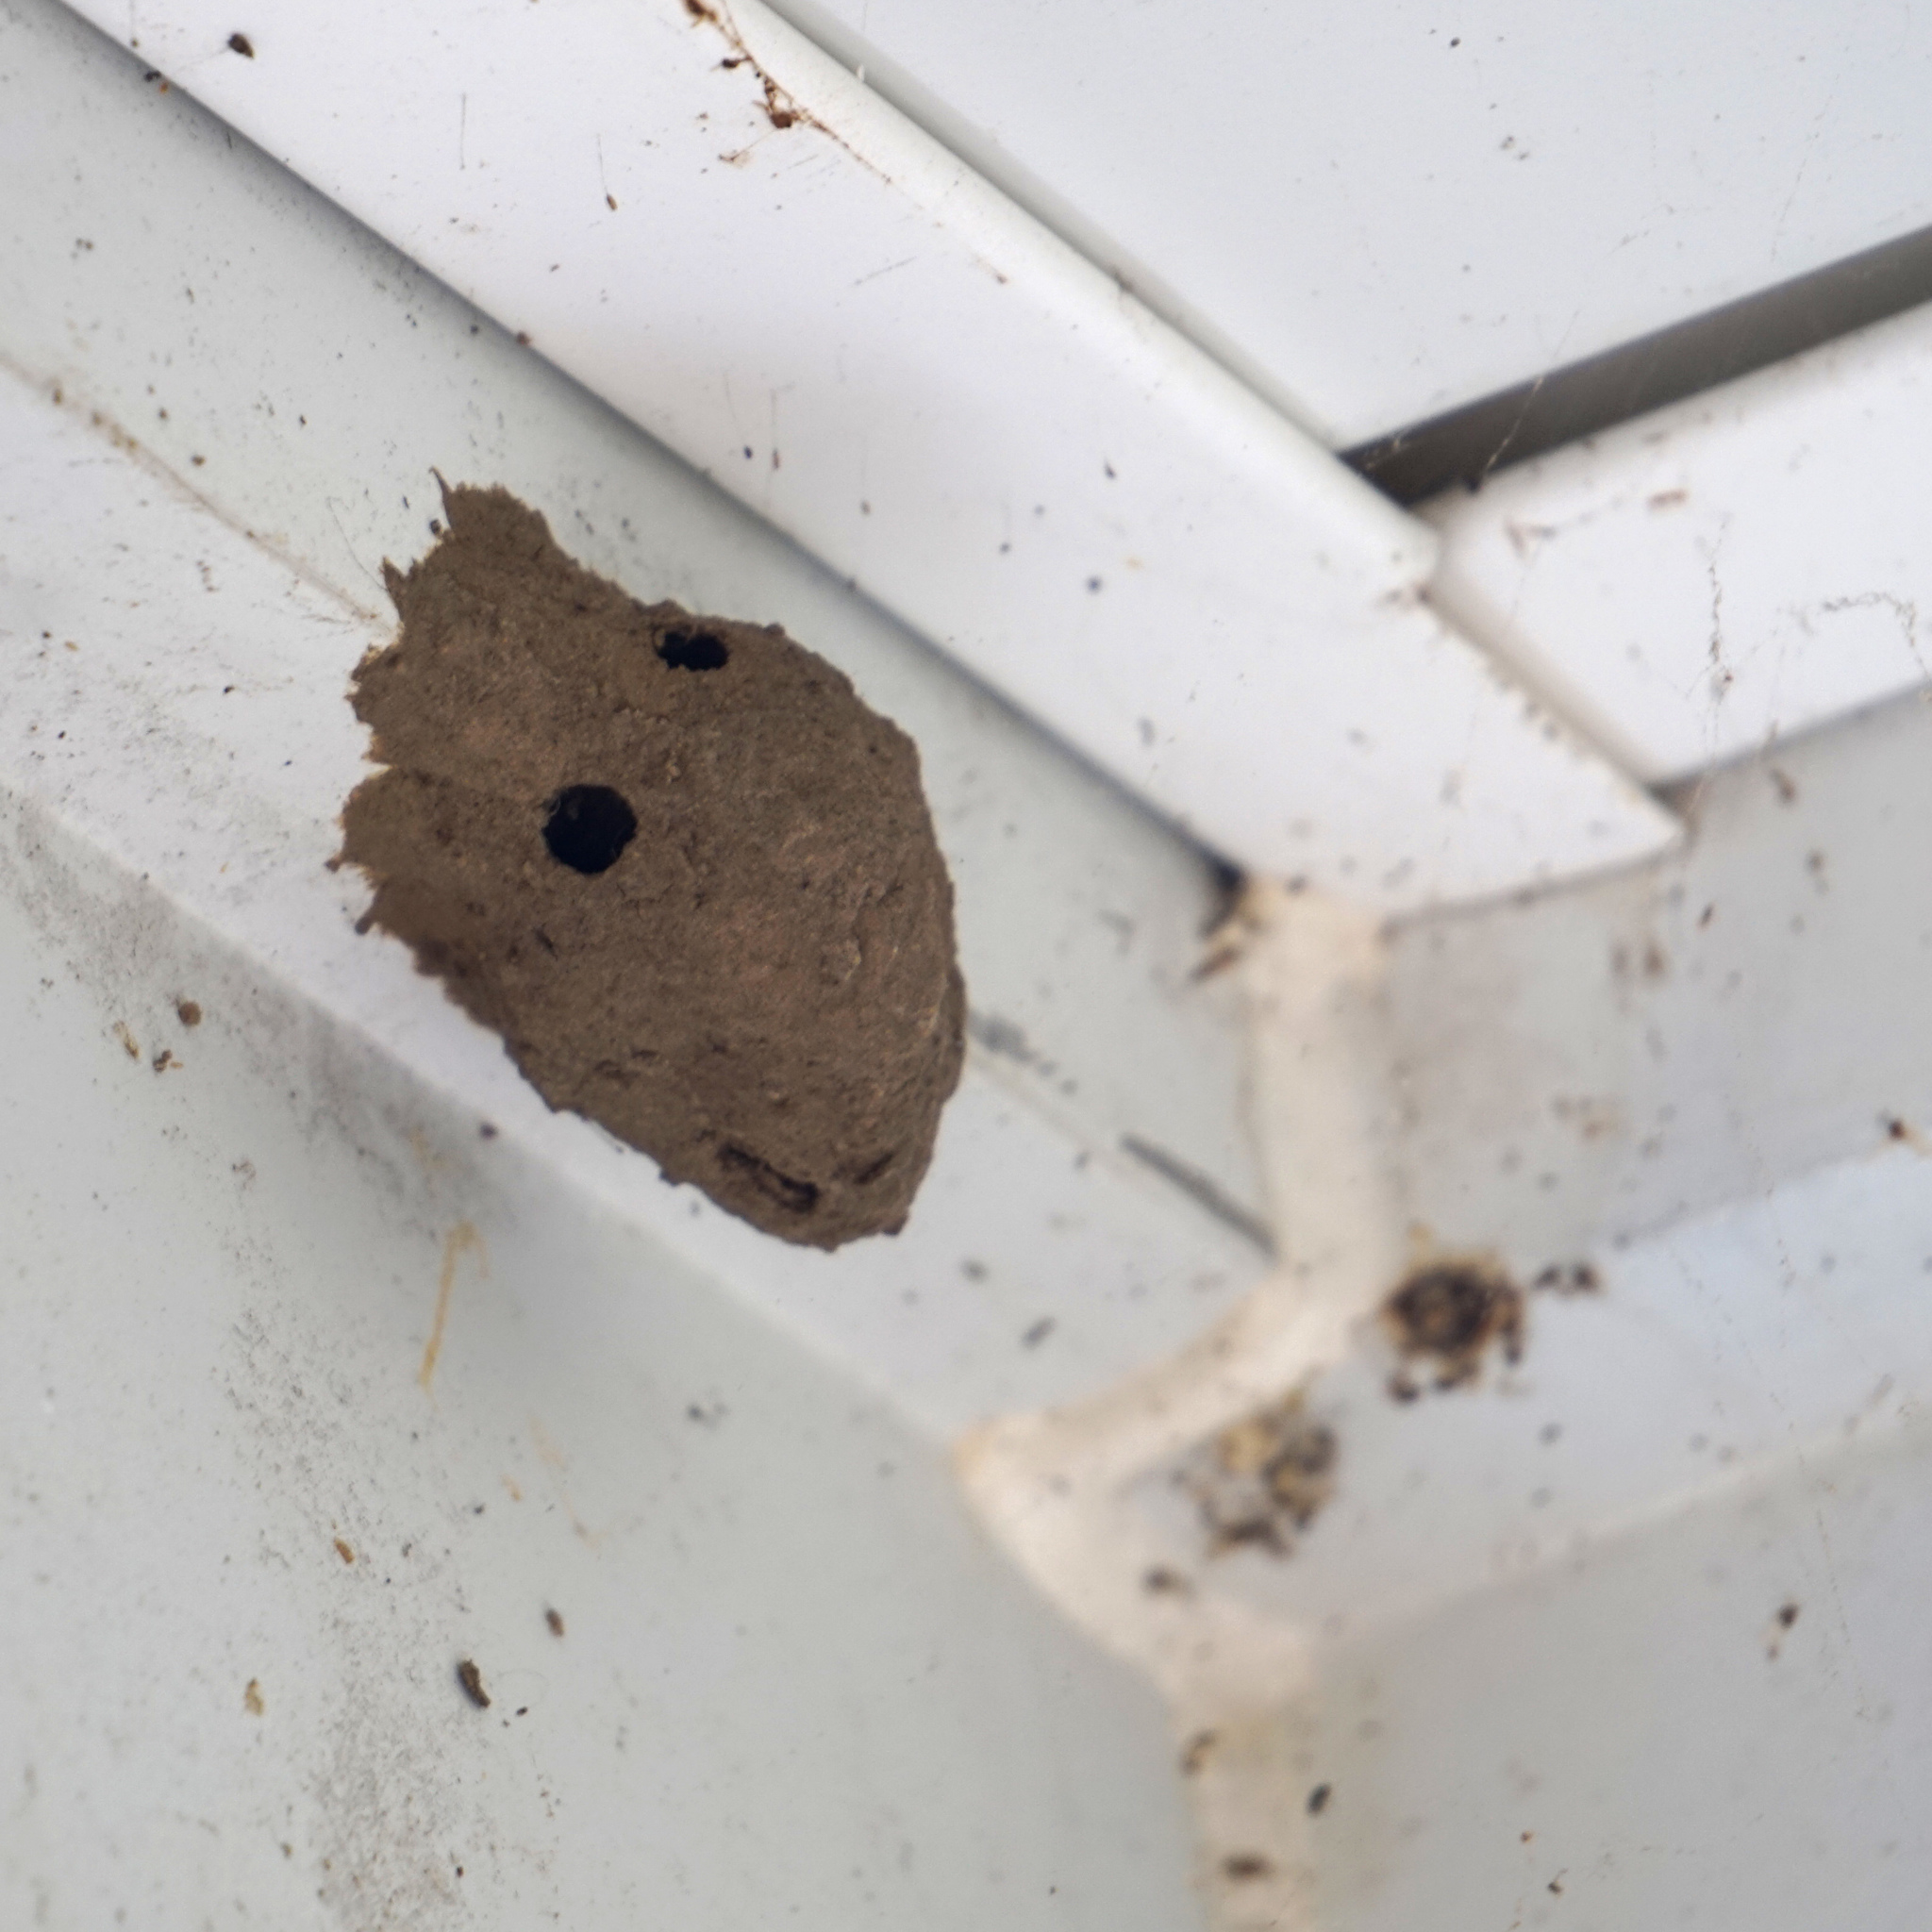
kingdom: Animalia
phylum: Arthropoda
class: Insecta
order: Hymenoptera
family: Sphecidae
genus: Sceliphron
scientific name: Sceliphron caementarium
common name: Mud dauber
